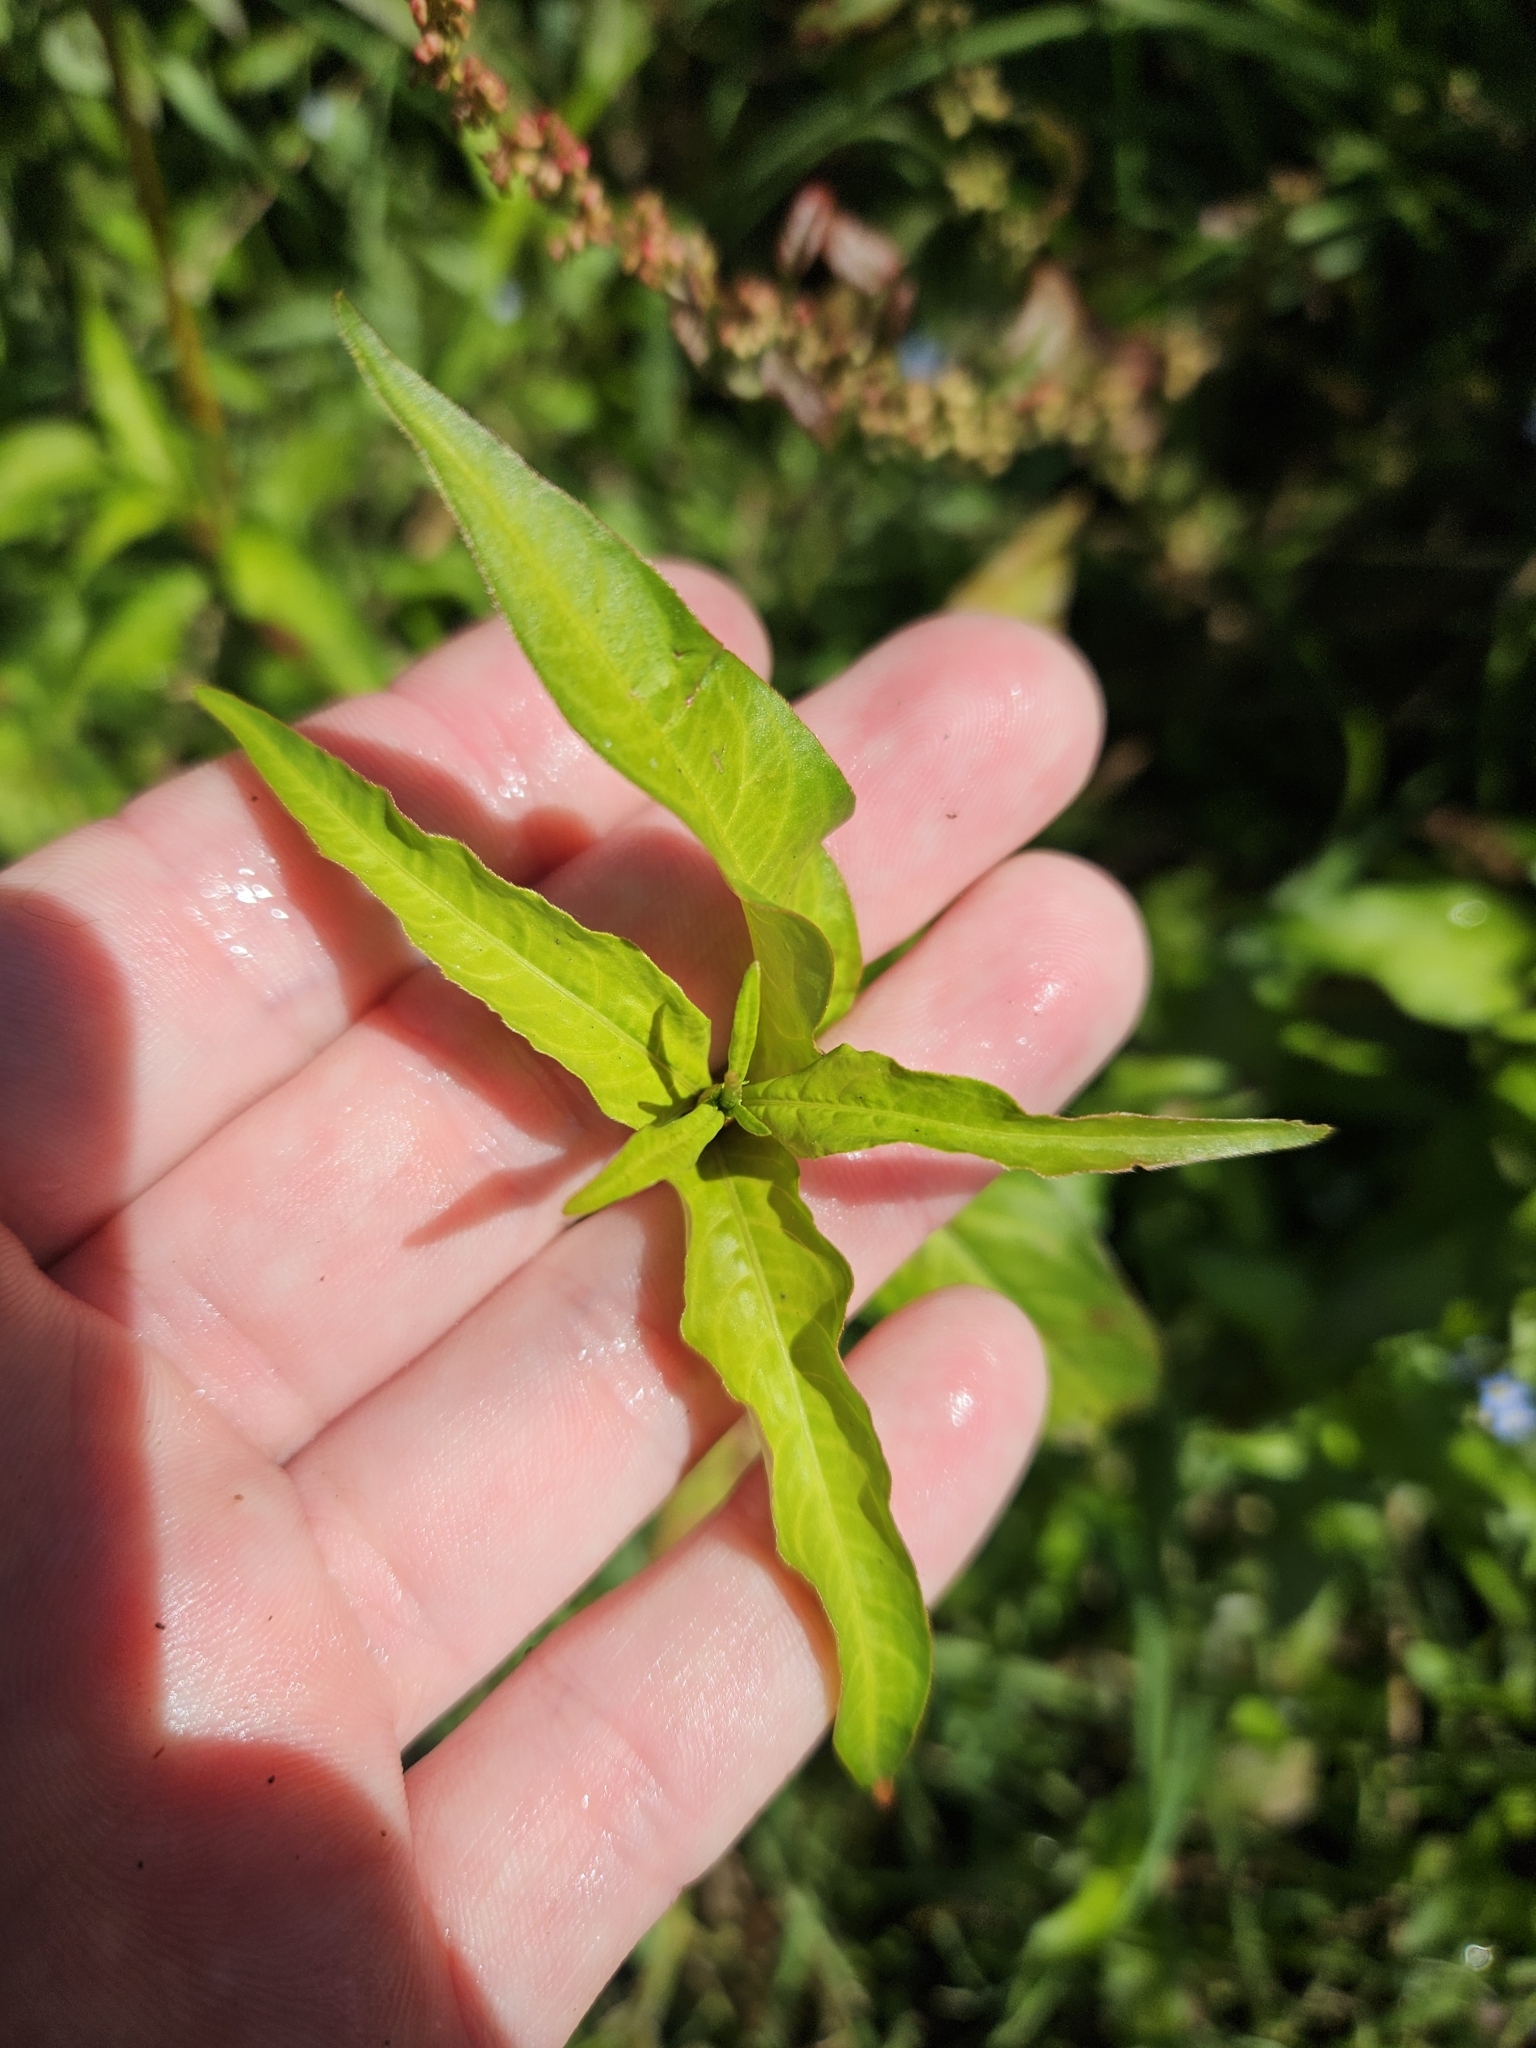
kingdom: Plantae
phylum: Tracheophyta
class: Magnoliopsida
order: Caryophyllales
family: Polygonaceae
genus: Persicaria
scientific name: Persicaria hydropiper
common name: Water-pepper
